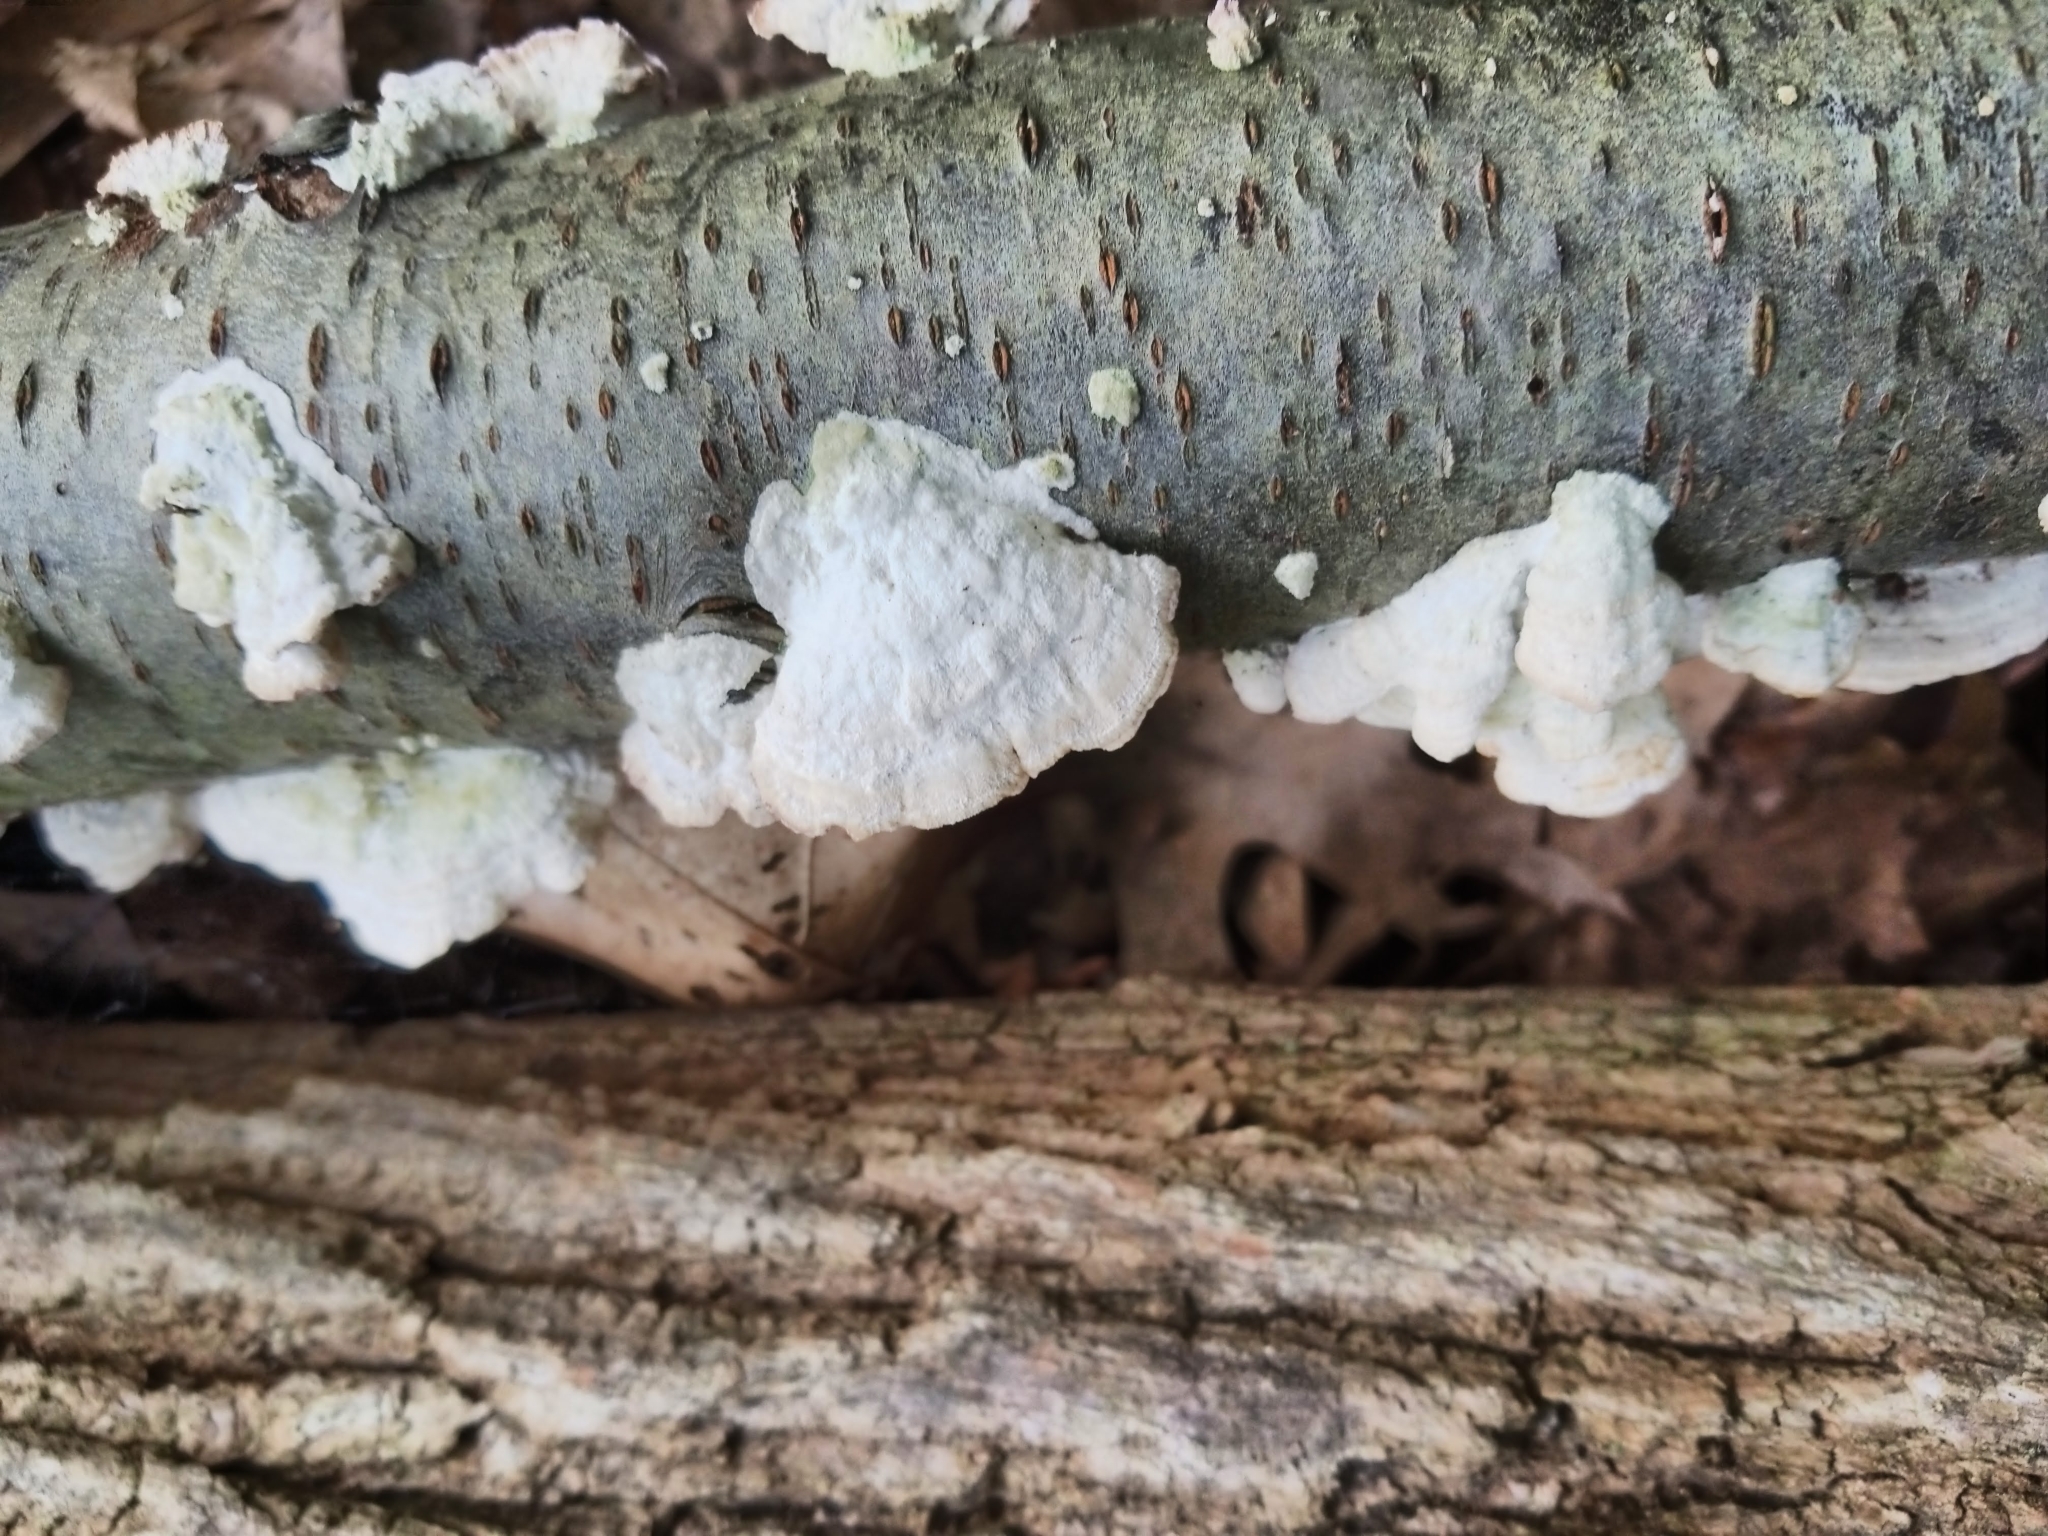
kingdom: Fungi
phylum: Basidiomycota
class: Agaricomycetes
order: Hymenochaetales
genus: Trichaptum
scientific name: Trichaptum biforme
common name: Violet-toothed polypore
